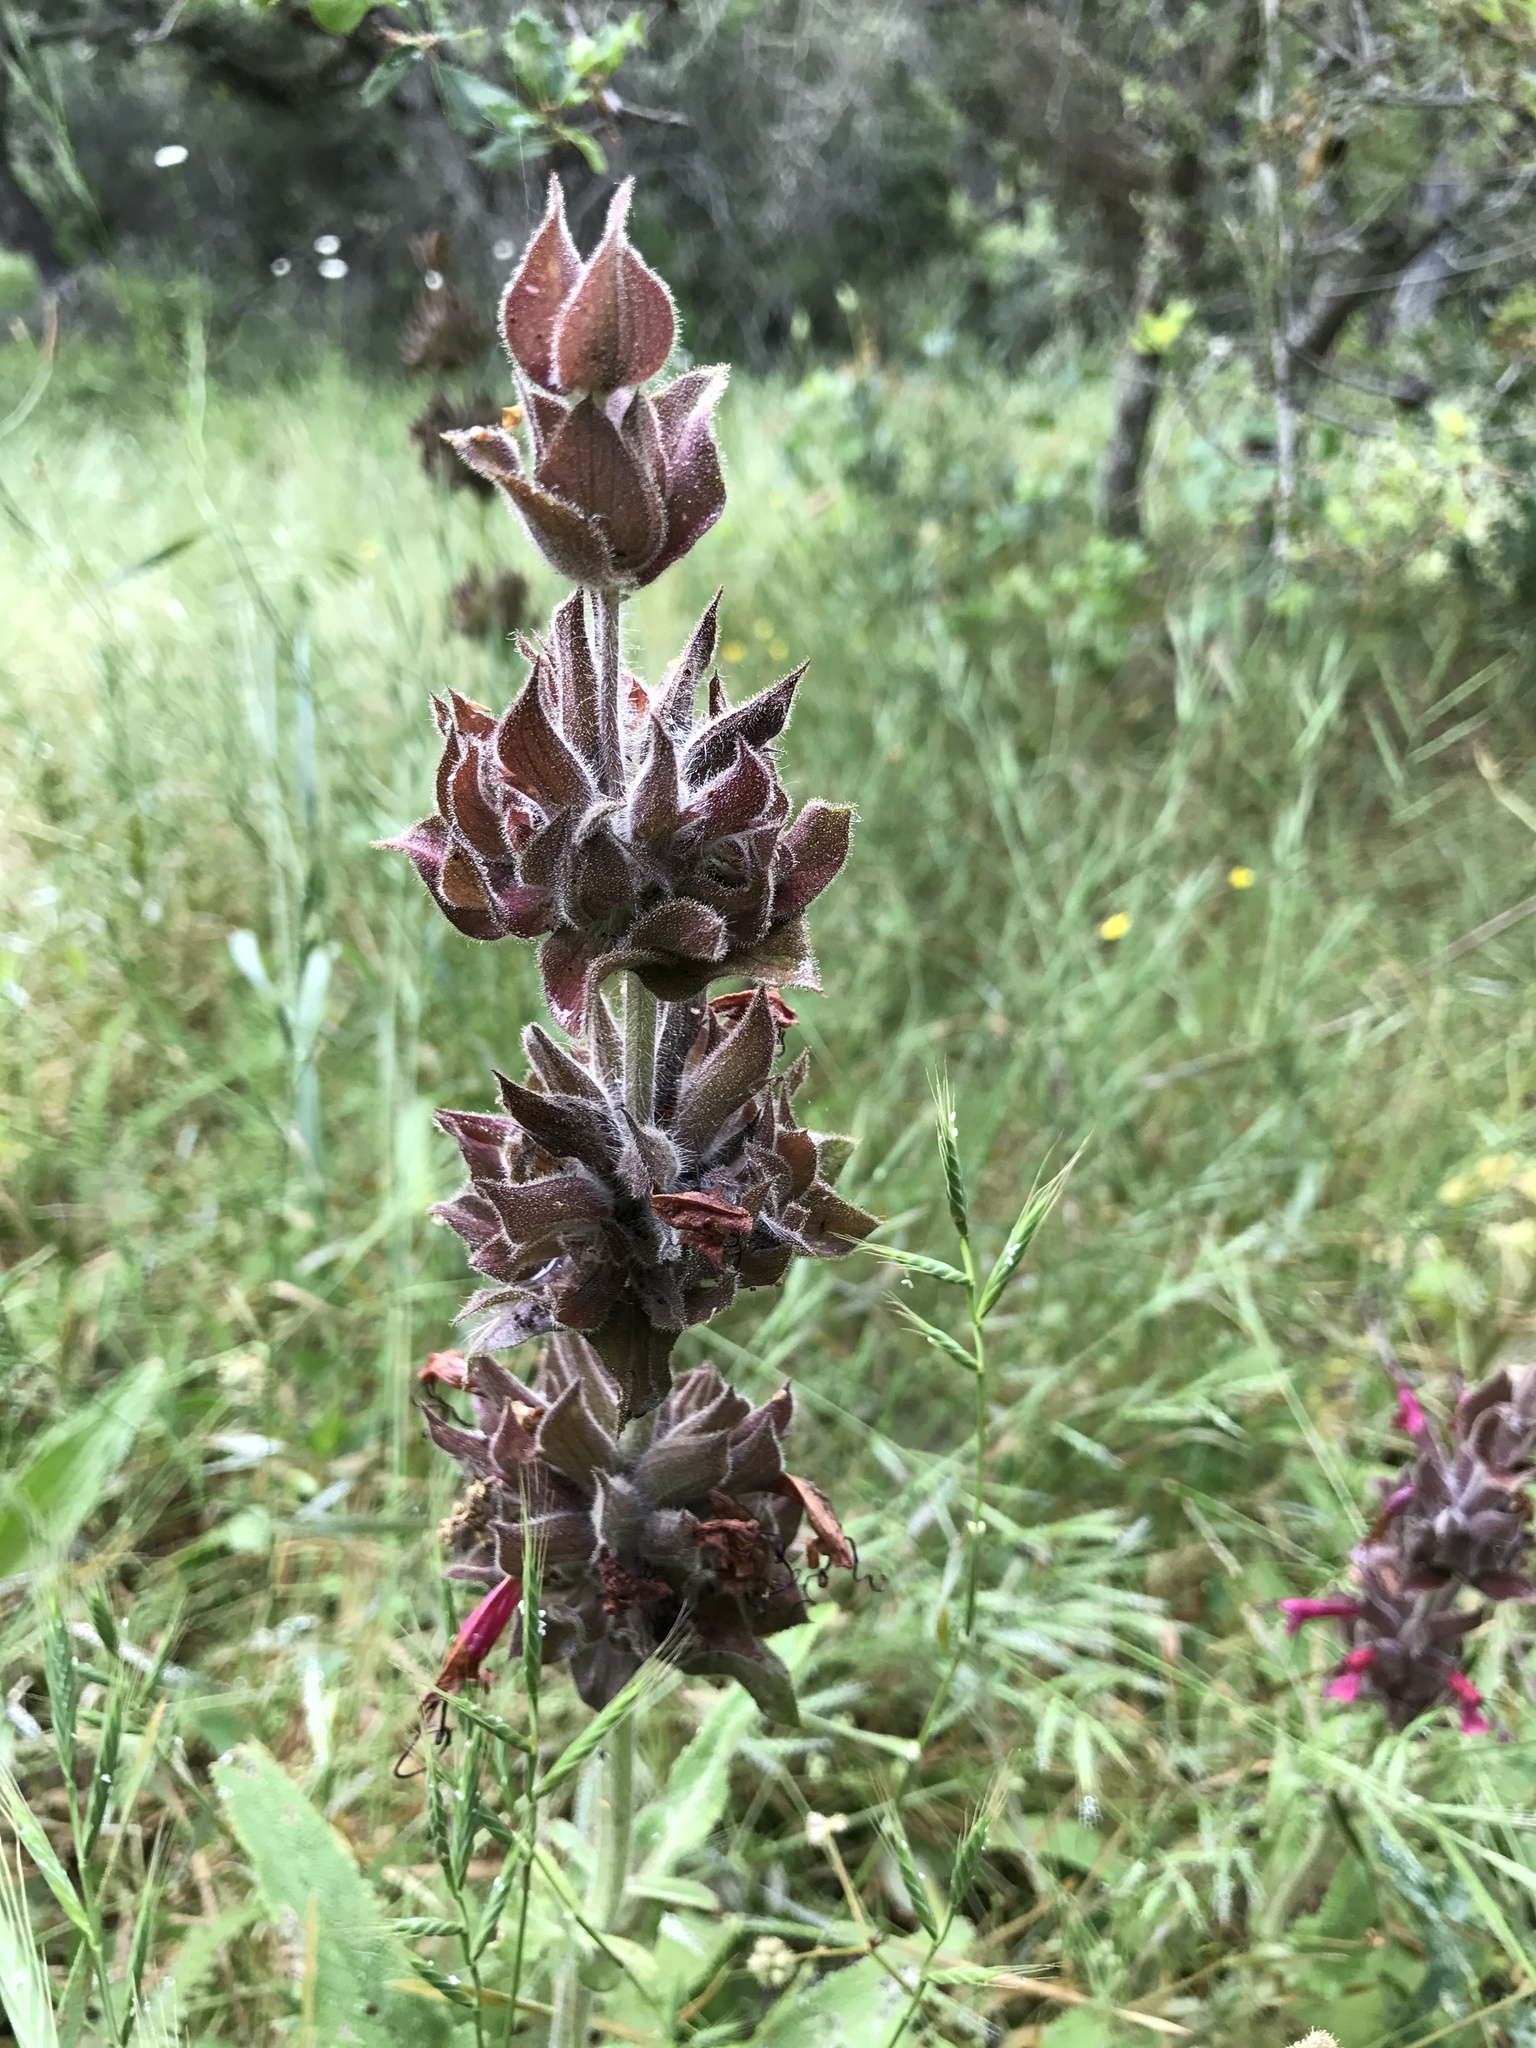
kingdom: Plantae
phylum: Tracheophyta
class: Magnoliopsida
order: Lamiales
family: Lamiaceae
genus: Salvia
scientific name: Salvia spathacea
